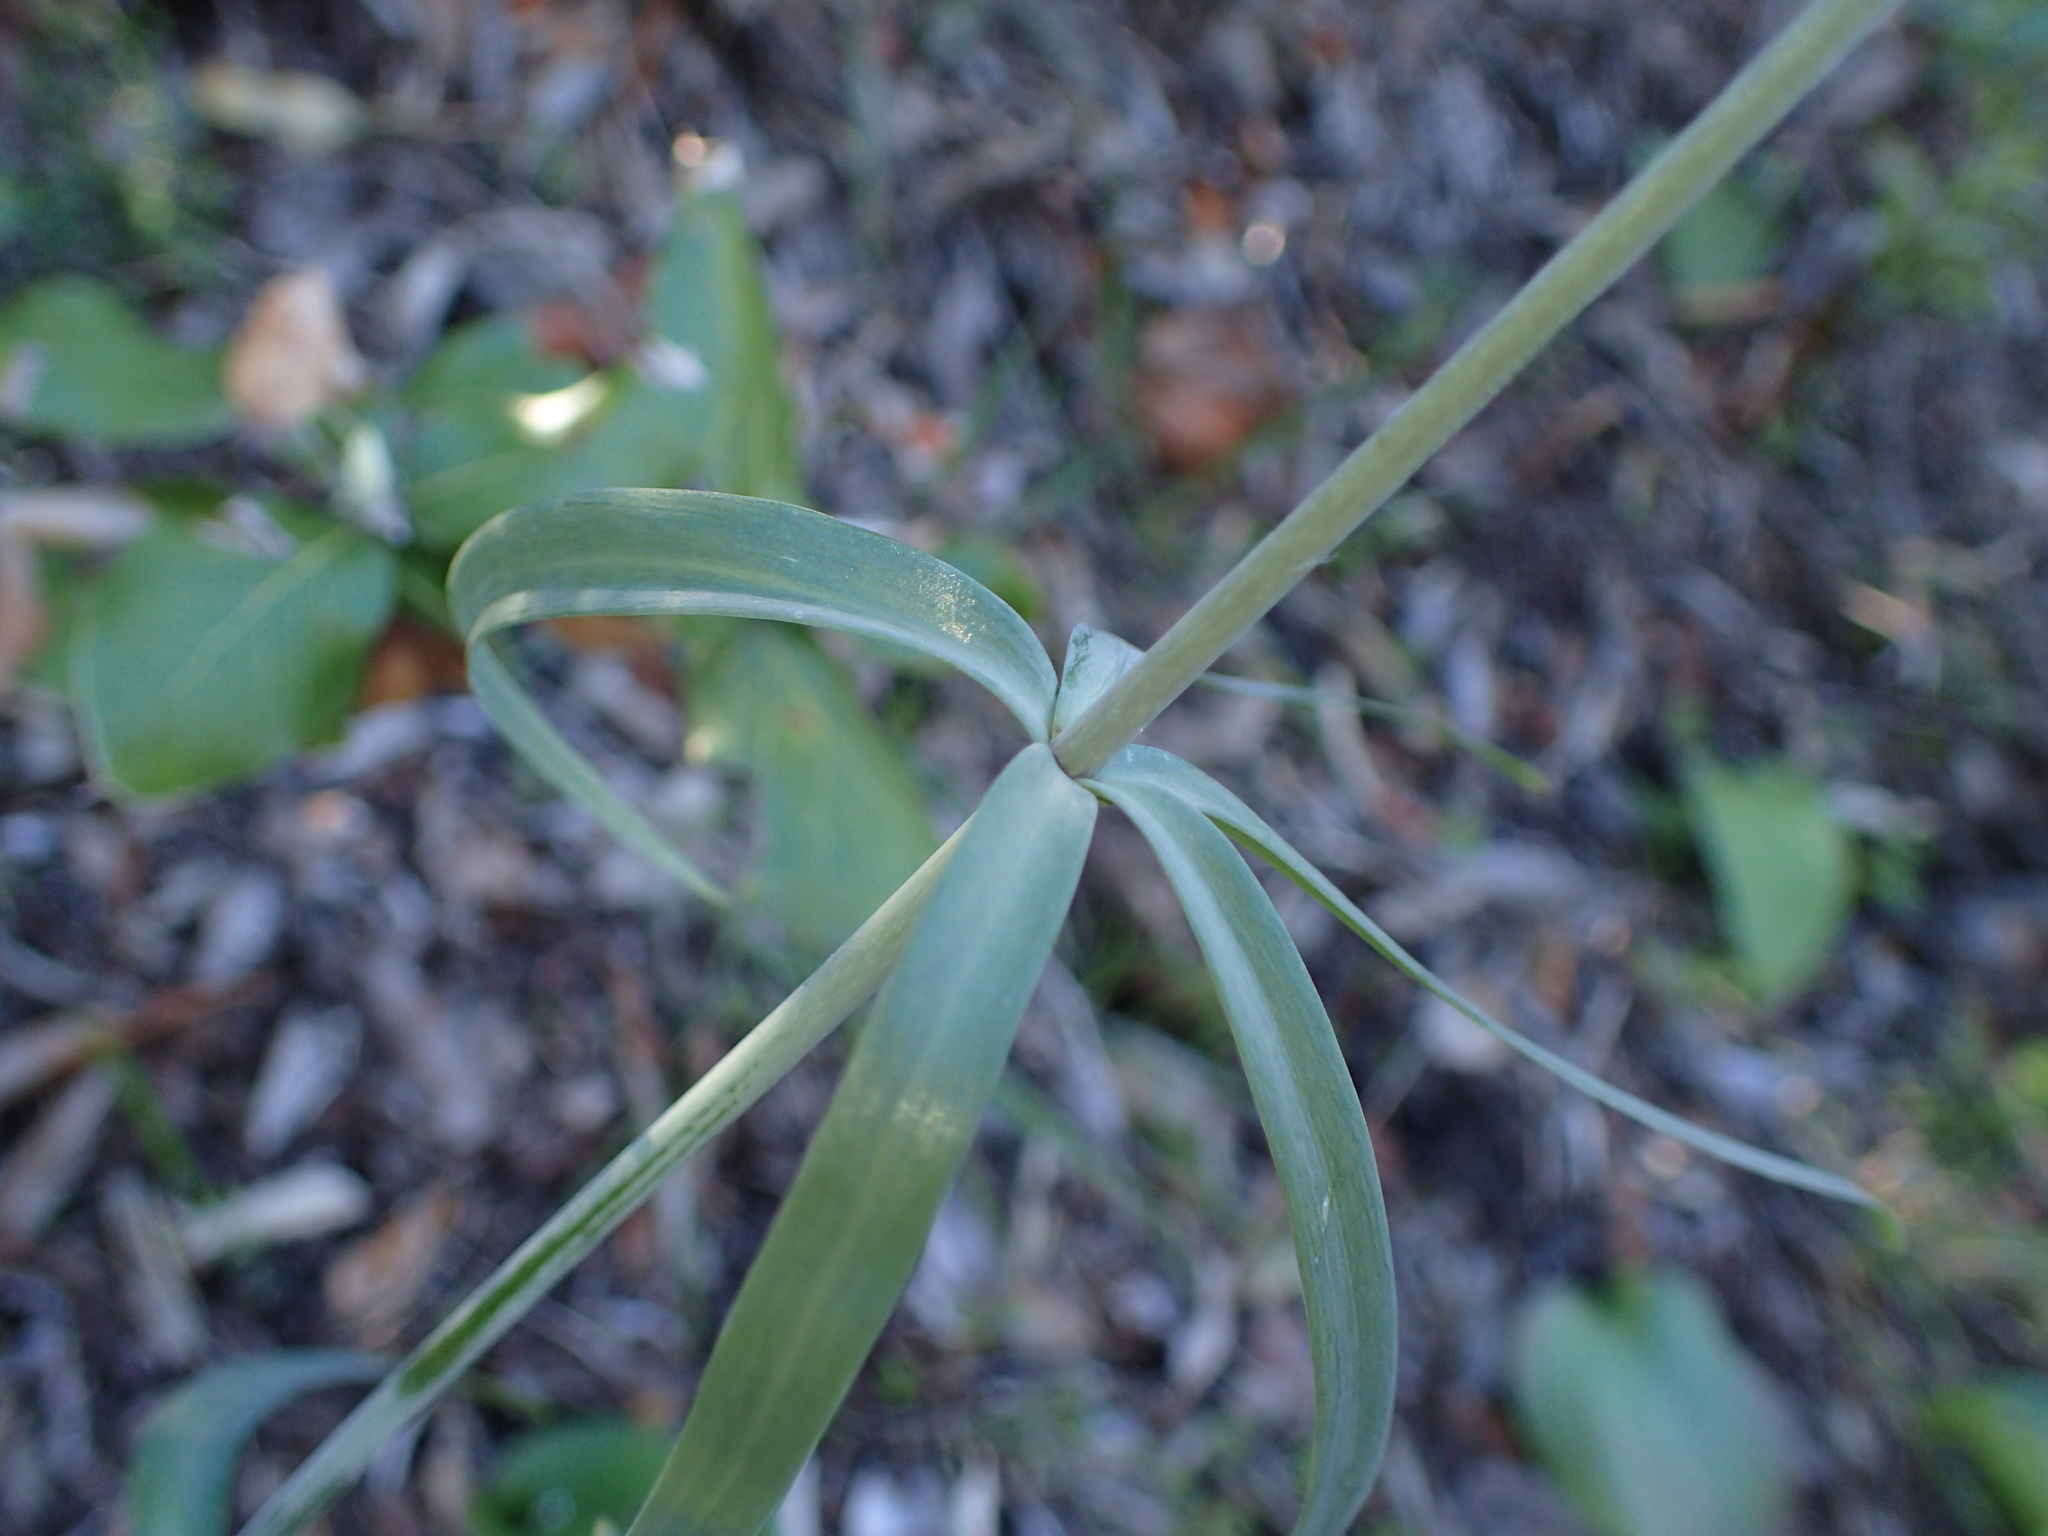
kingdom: Plantae
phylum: Tracheophyta
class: Liliopsida
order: Liliales
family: Liliaceae
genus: Fritillaria
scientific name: Fritillaria ojaiensis
